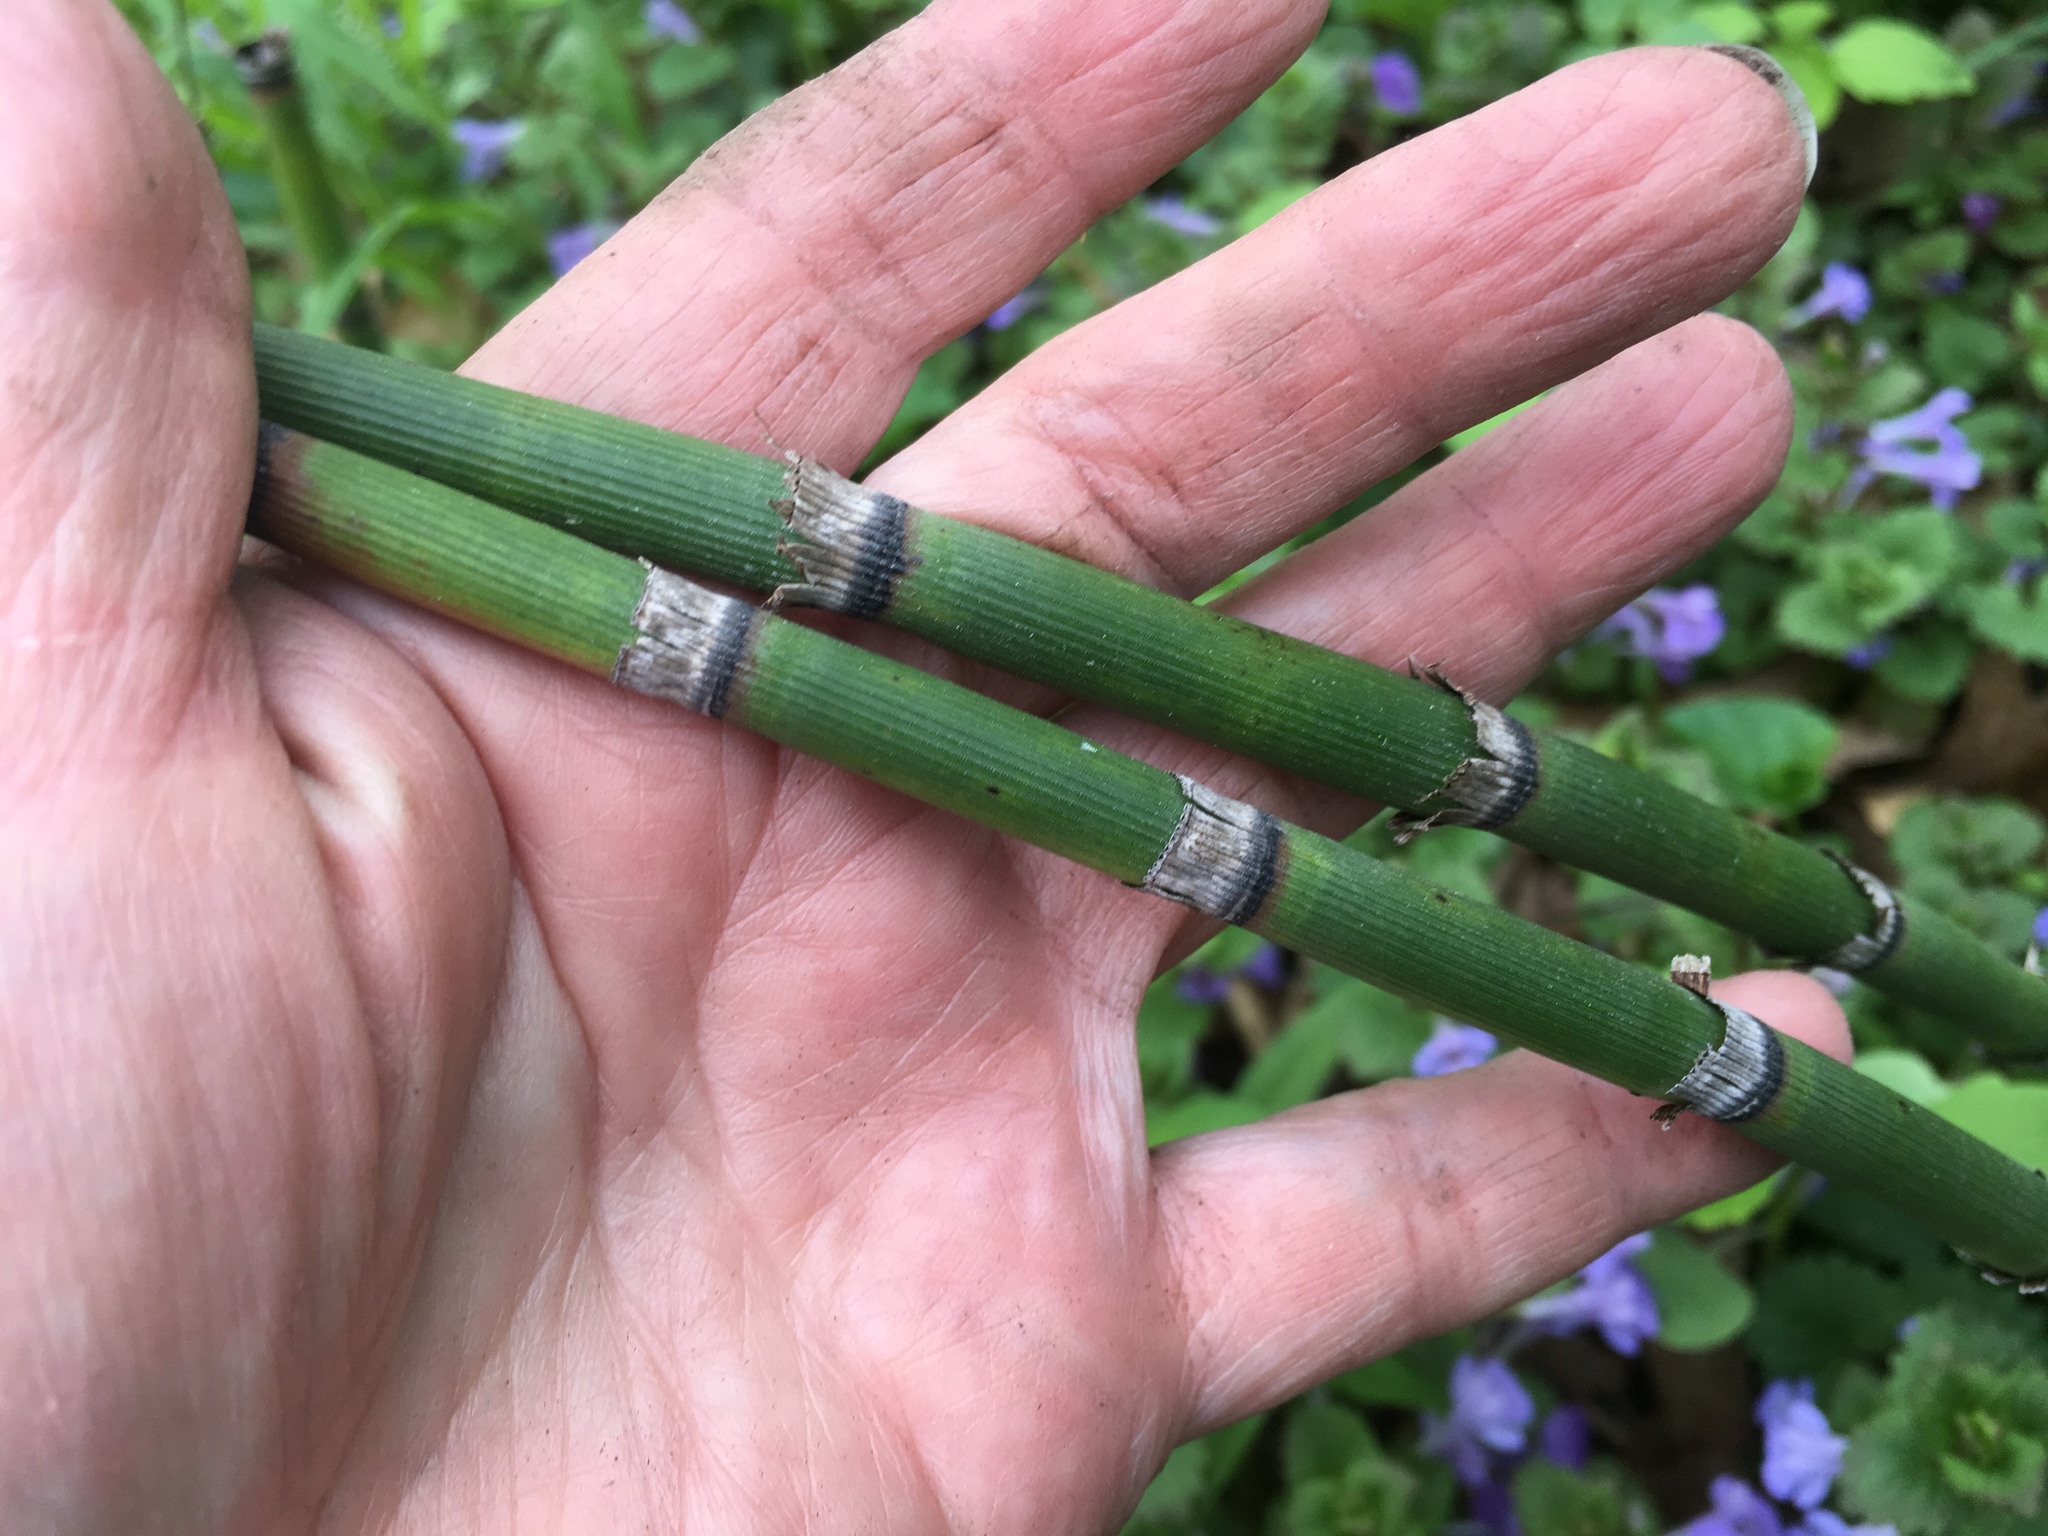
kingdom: Plantae
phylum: Tracheophyta
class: Polypodiopsida
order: Equisetales
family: Equisetaceae
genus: Equisetum
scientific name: Equisetum hyemale
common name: Rough horsetail
